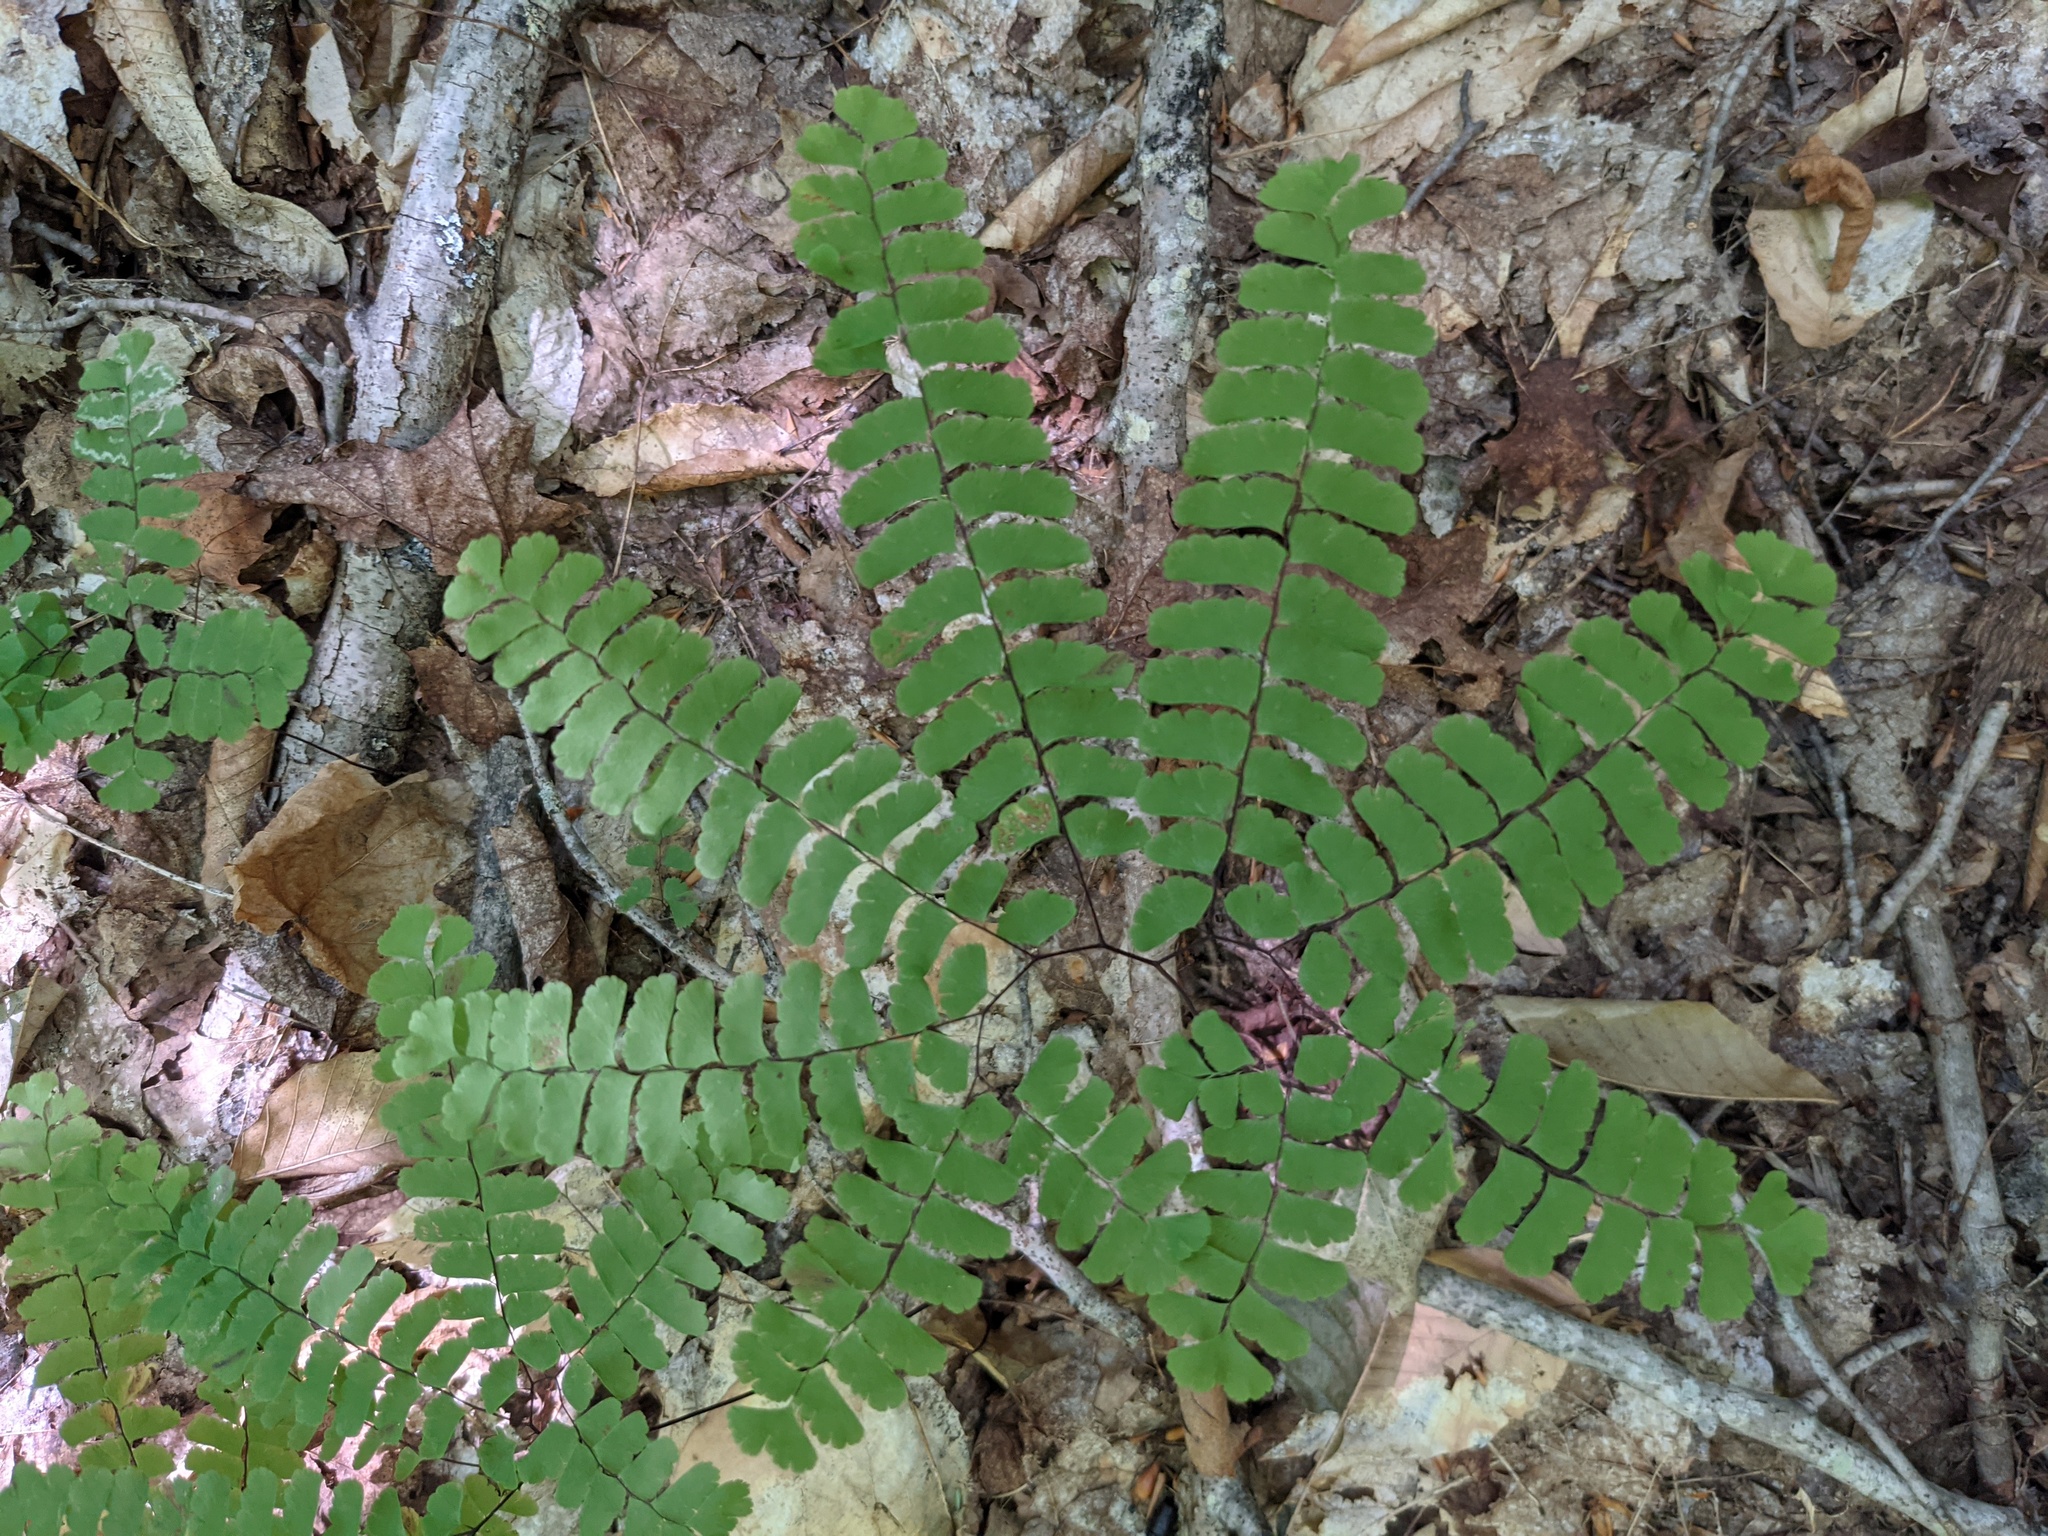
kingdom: Plantae
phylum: Tracheophyta
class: Polypodiopsida
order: Polypodiales
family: Pteridaceae
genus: Adiantum
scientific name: Adiantum pedatum
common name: Five-finger fern
